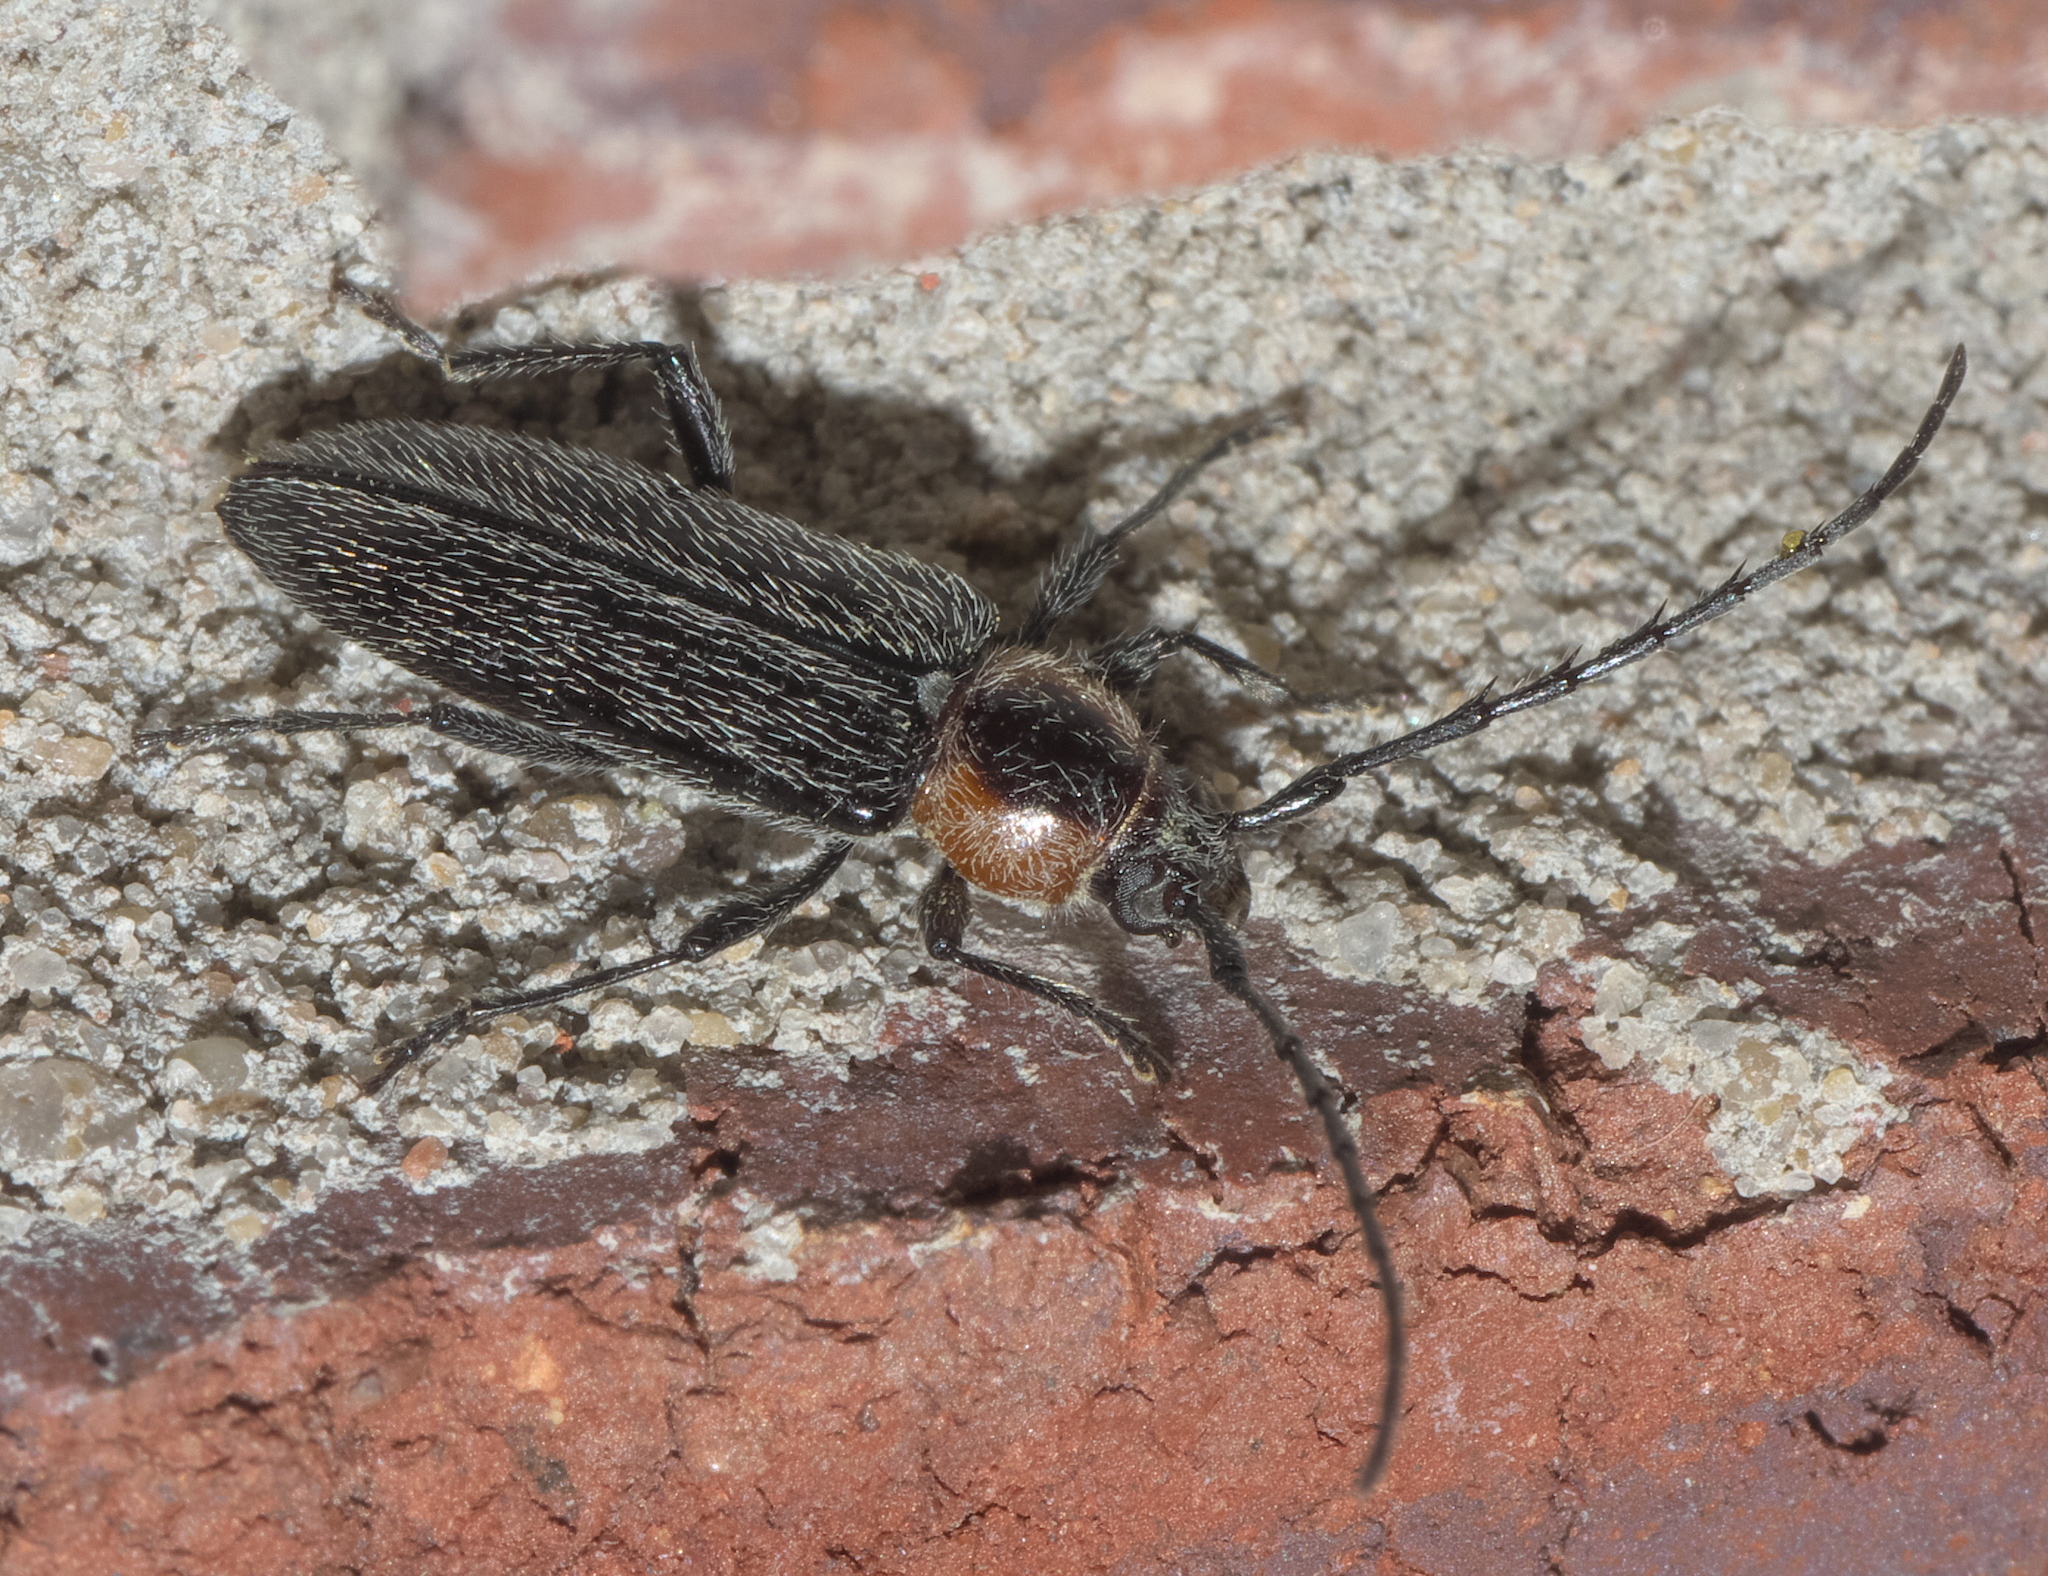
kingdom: Animalia
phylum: Arthropoda
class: Insecta
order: Coleoptera
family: Cerambycidae
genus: Stenosphenus
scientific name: Stenosphenus notatus
